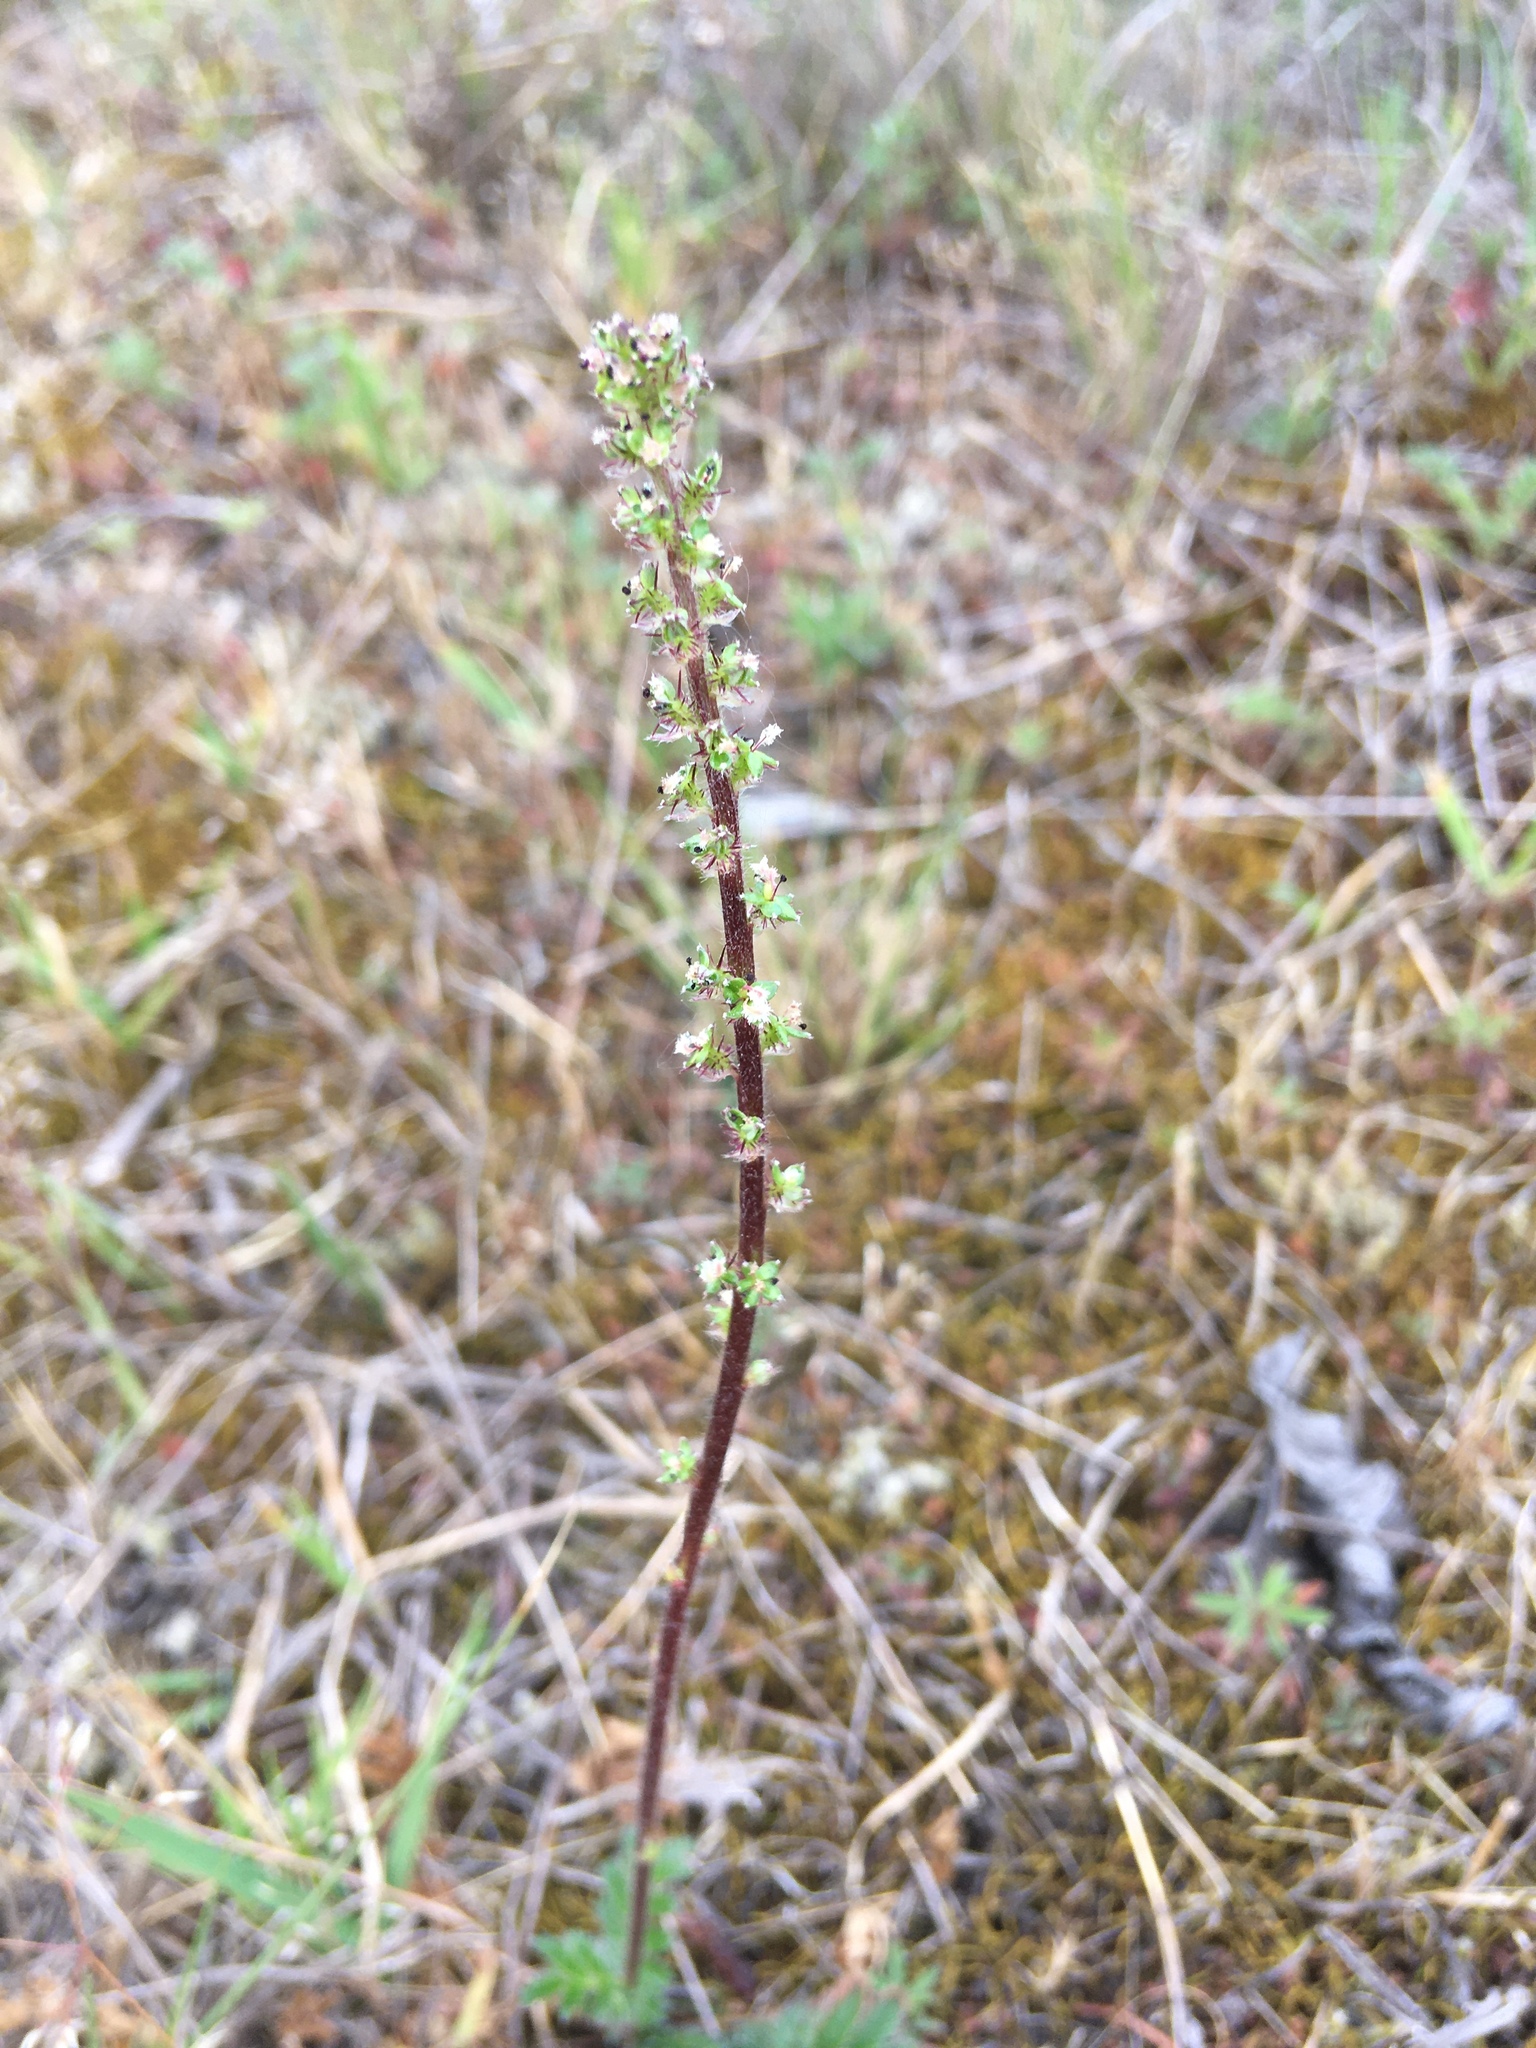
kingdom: Plantae
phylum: Tracheophyta
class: Magnoliopsida
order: Rosales
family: Rosaceae
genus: Acaena
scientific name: Acaena agnipila
